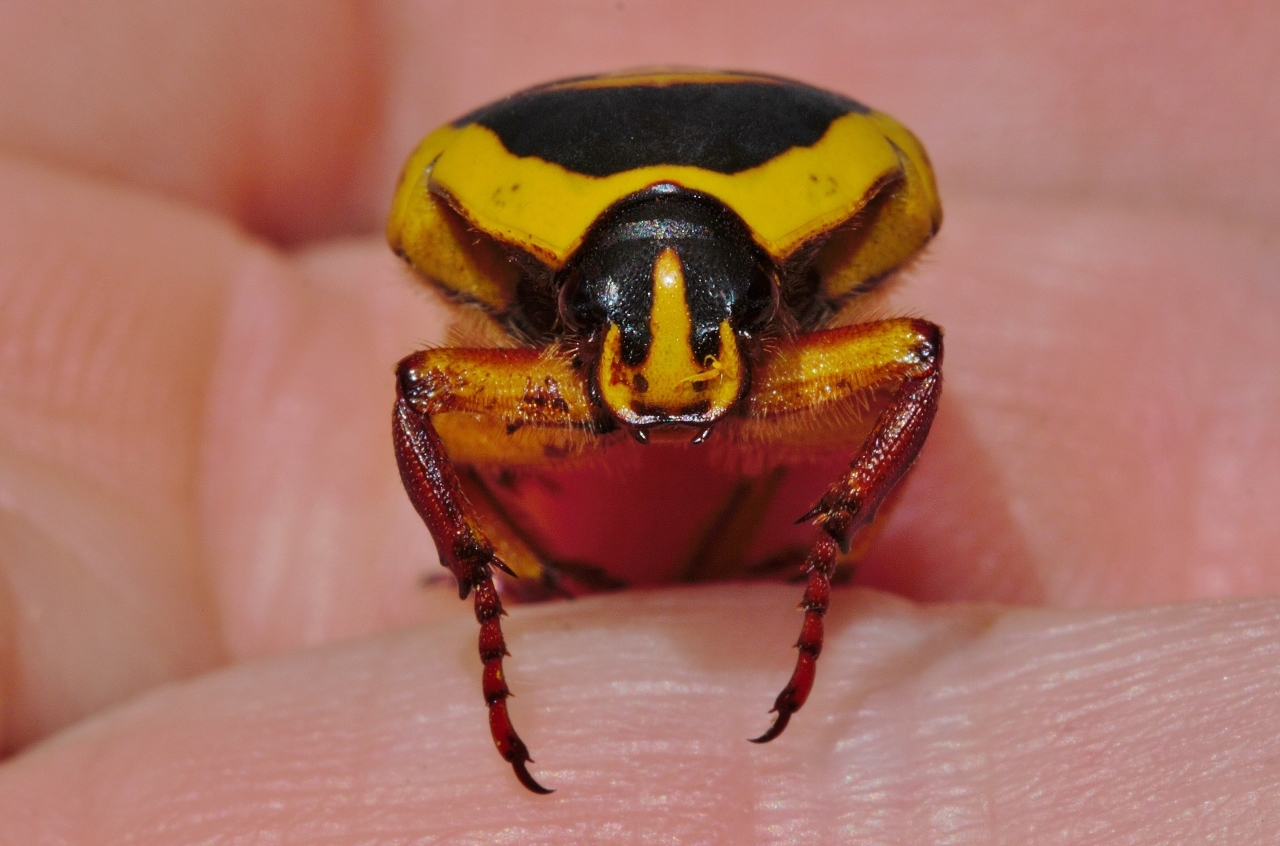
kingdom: Animalia
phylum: Arthropoda
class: Insecta
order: Coleoptera
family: Scarabaeidae
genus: Pachnoda
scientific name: Pachnoda discolor
